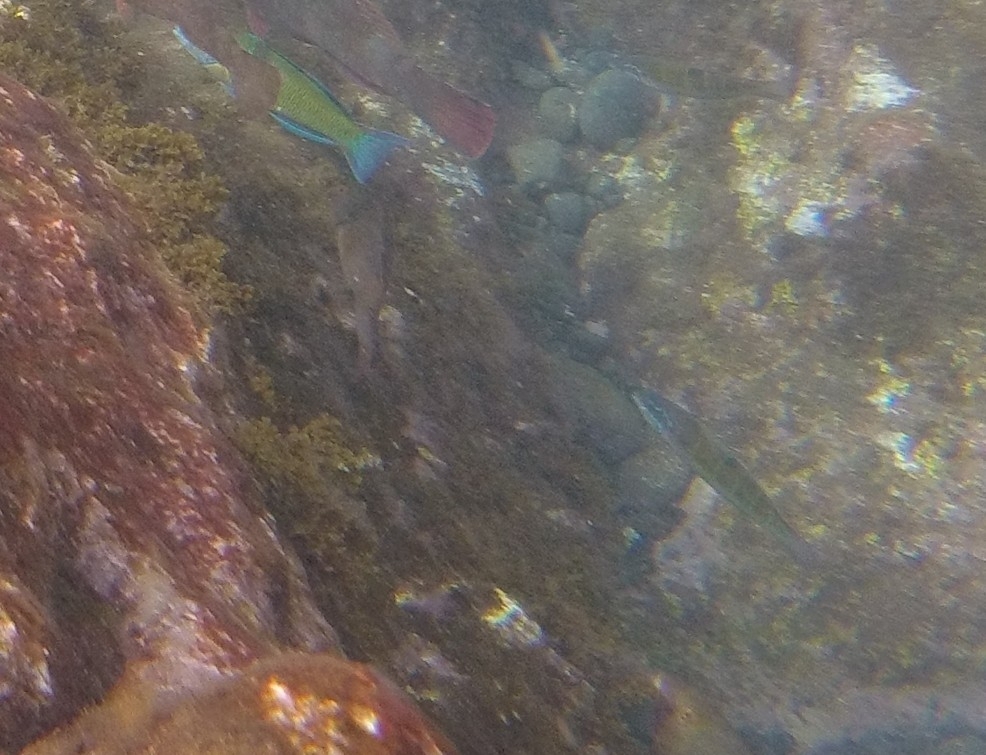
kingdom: Animalia
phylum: Chordata
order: Perciformes
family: Labridae
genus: Thalassoma
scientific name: Thalassoma pavo
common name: Ornate wrasse
